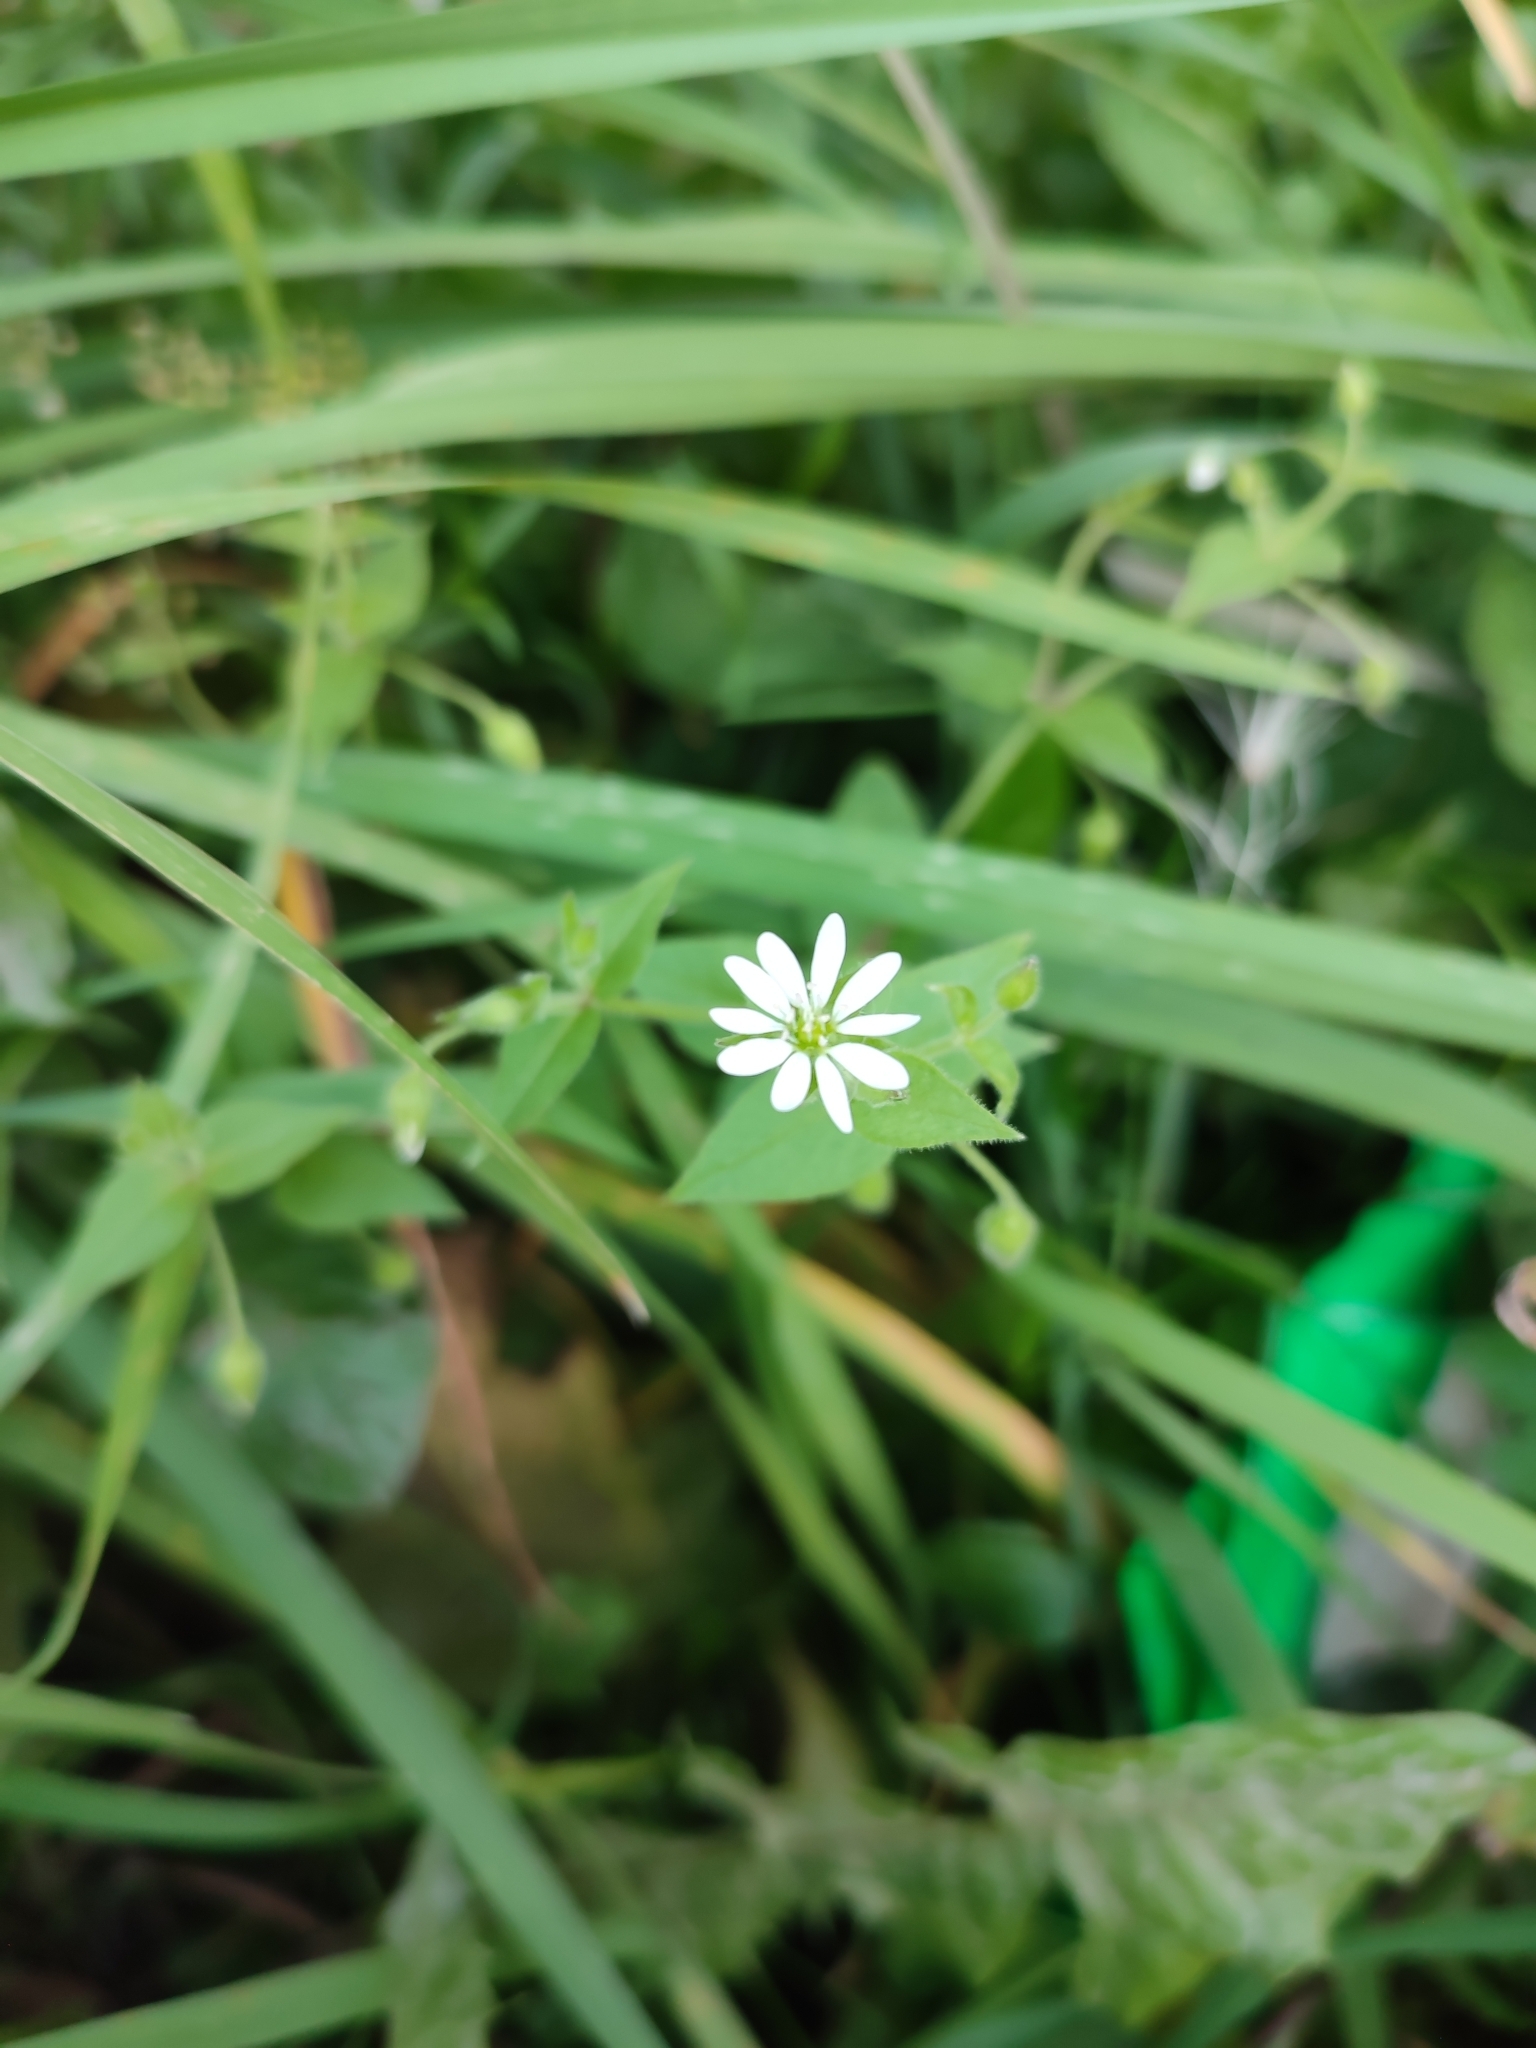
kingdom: Plantae
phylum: Tracheophyta
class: Magnoliopsida
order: Caryophyllales
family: Caryophyllaceae
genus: Stellaria
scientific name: Stellaria aquatica
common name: Water chickweed
